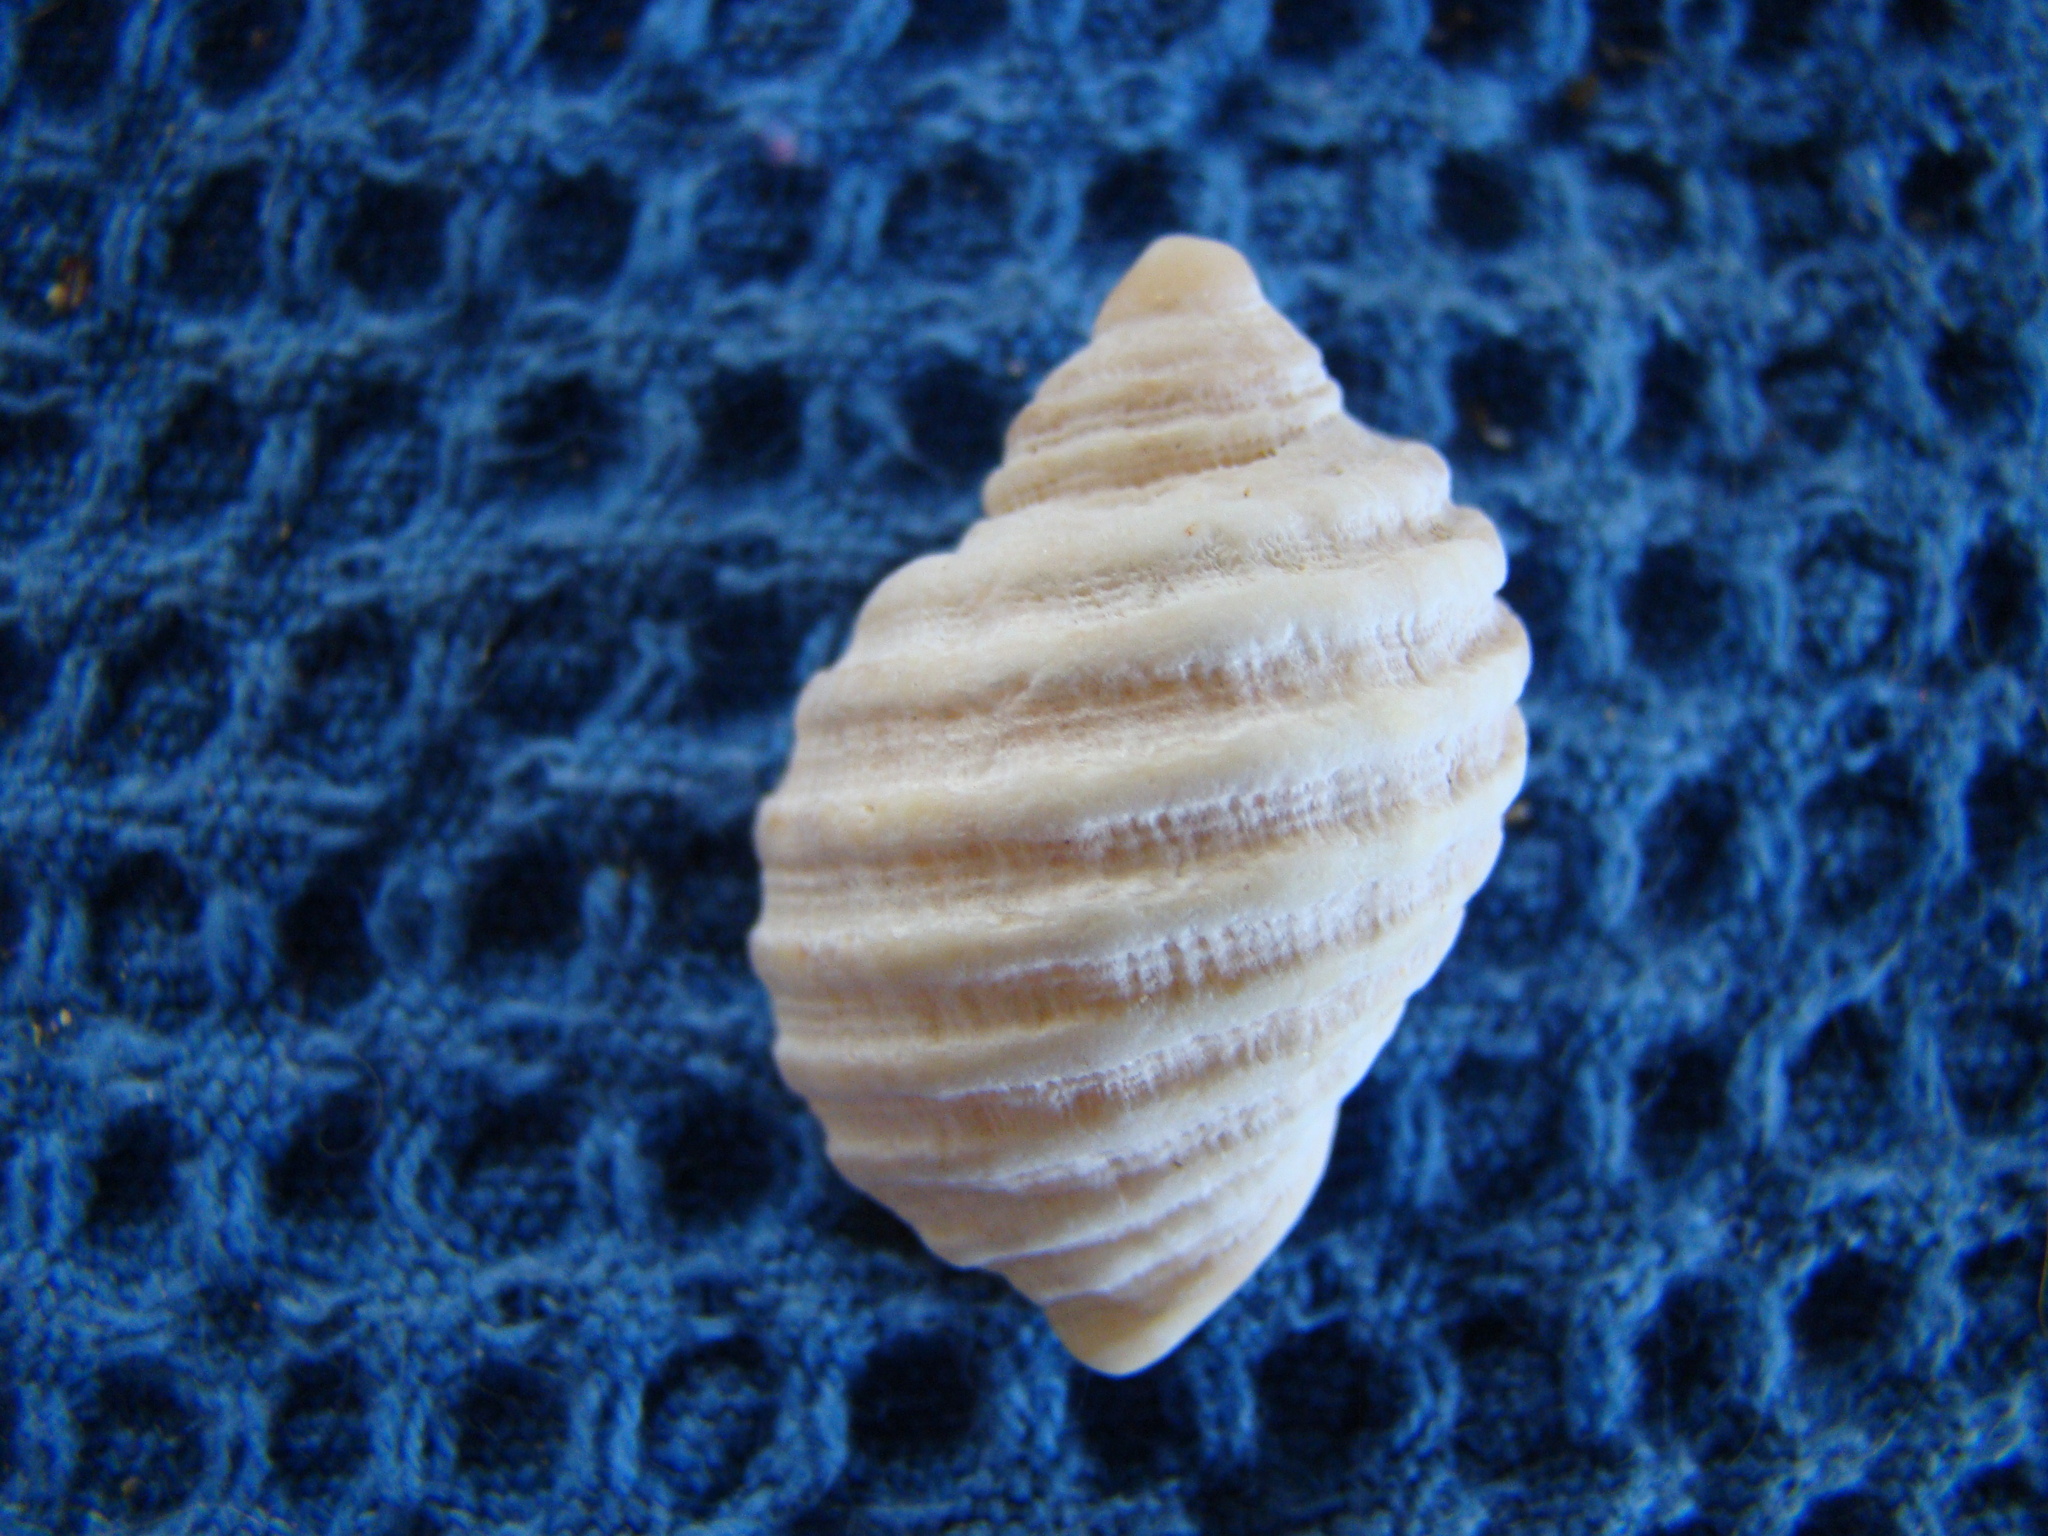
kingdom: Animalia
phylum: Mollusca
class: Gastropoda
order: Neogastropoda
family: Muricidae
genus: Dicathais
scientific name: Dicathais orbita
